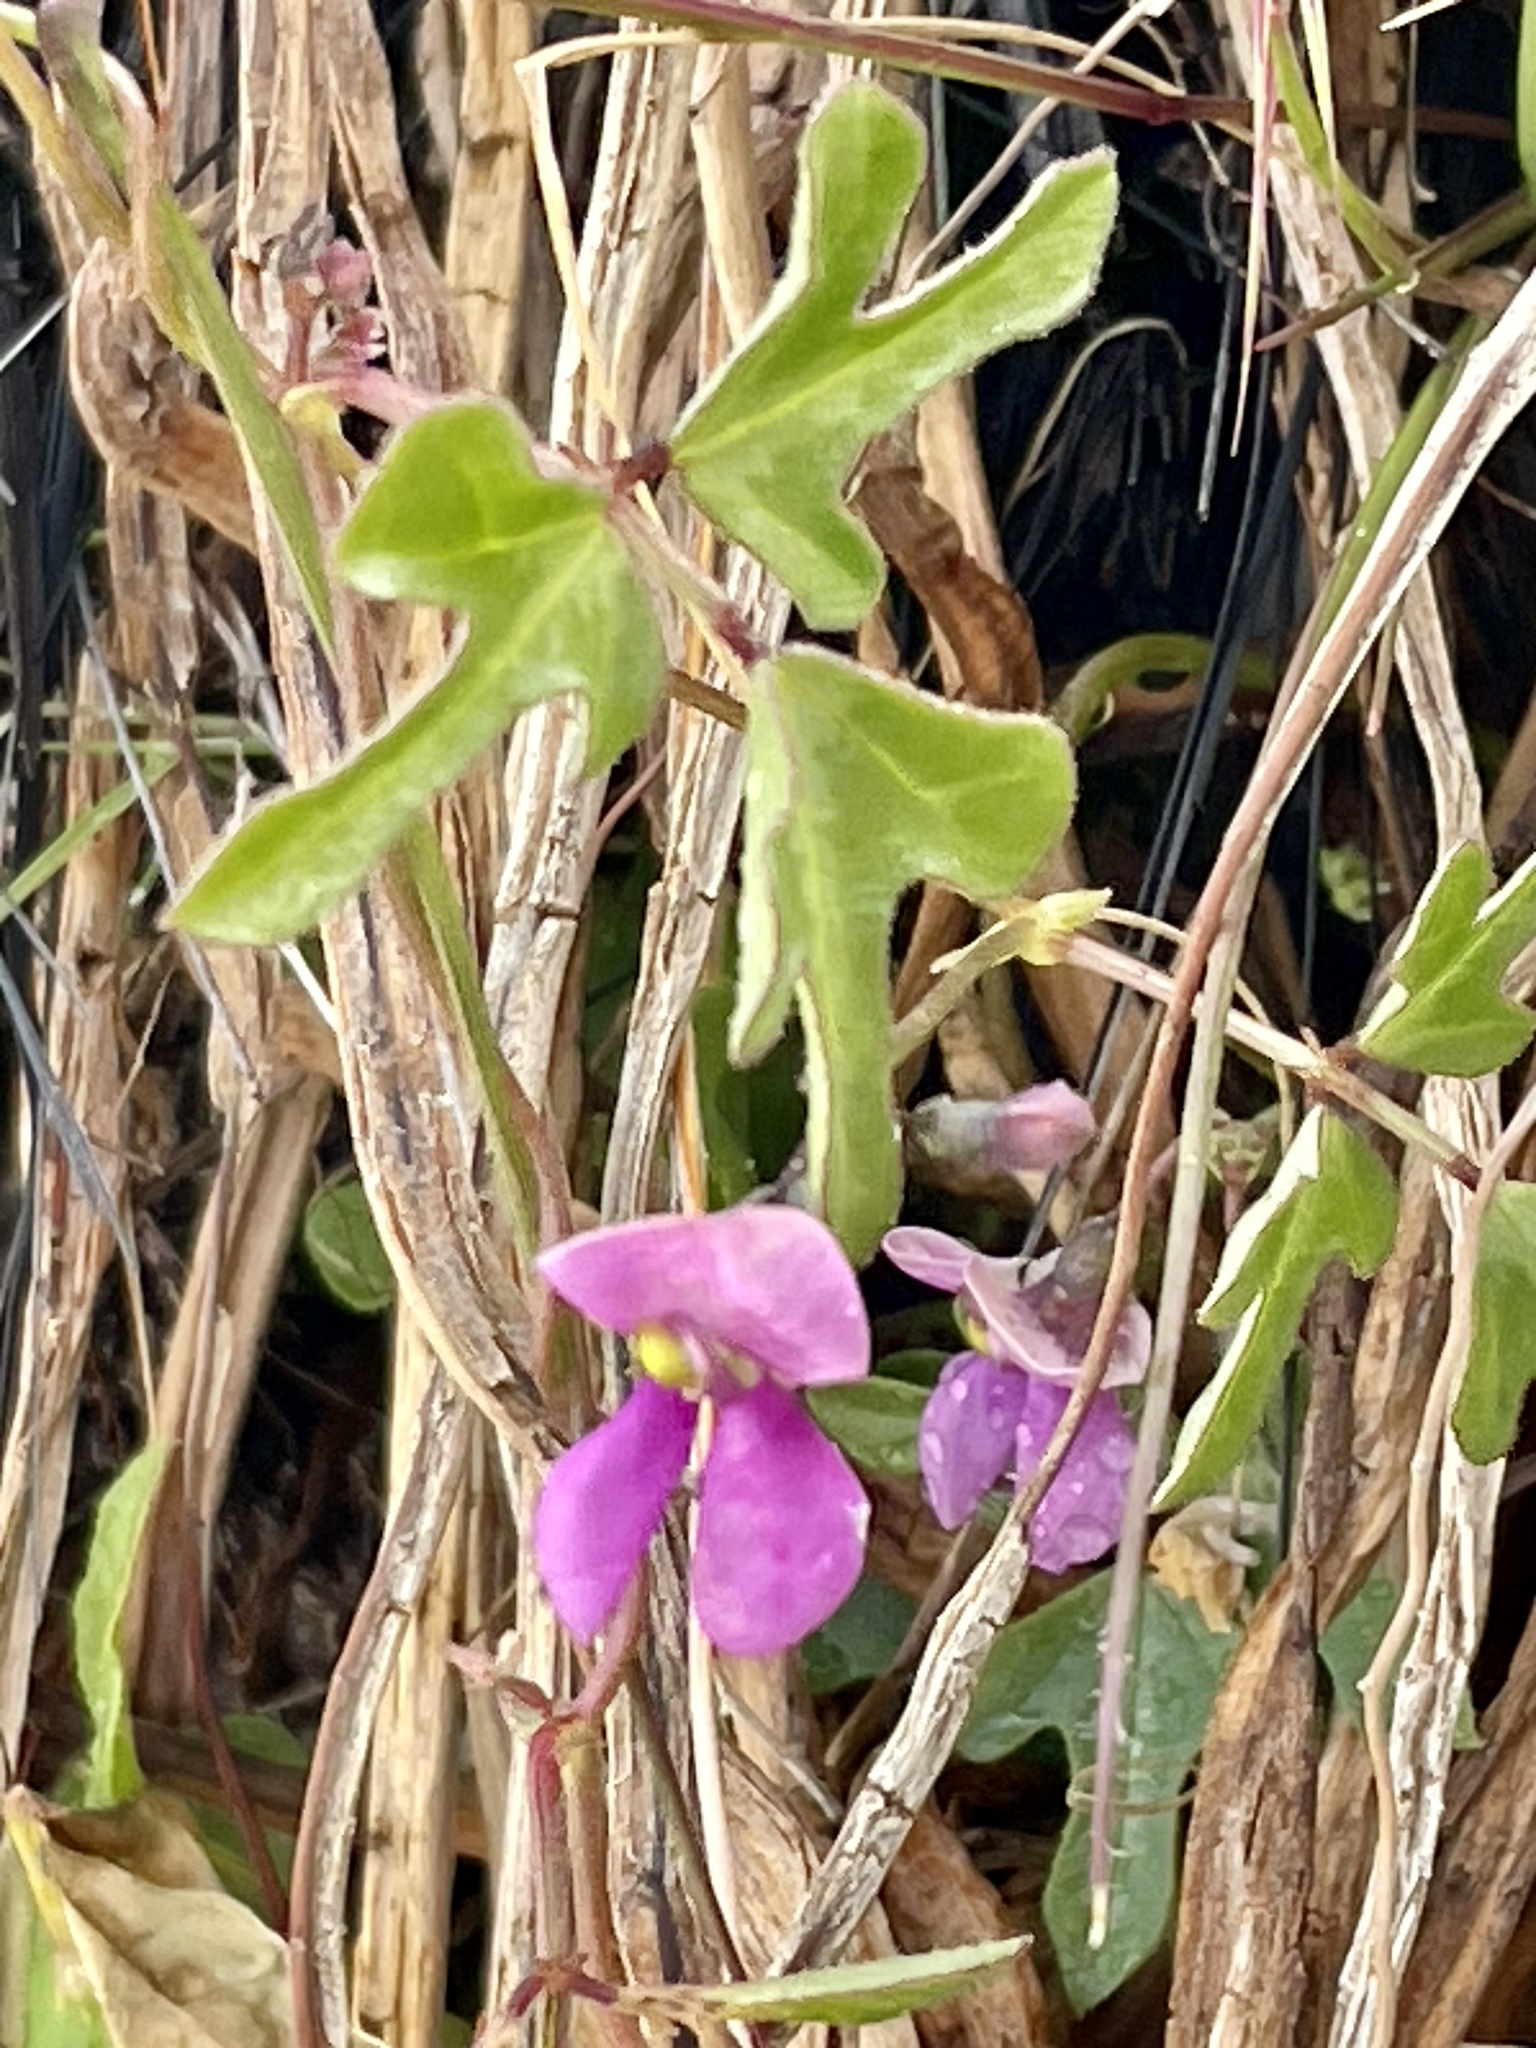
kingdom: Plantae
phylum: Tracheophyta
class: Magnoliopsida
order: Fabales
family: Fabaceae
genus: Phaseolus
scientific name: Phaseolus filiformis
